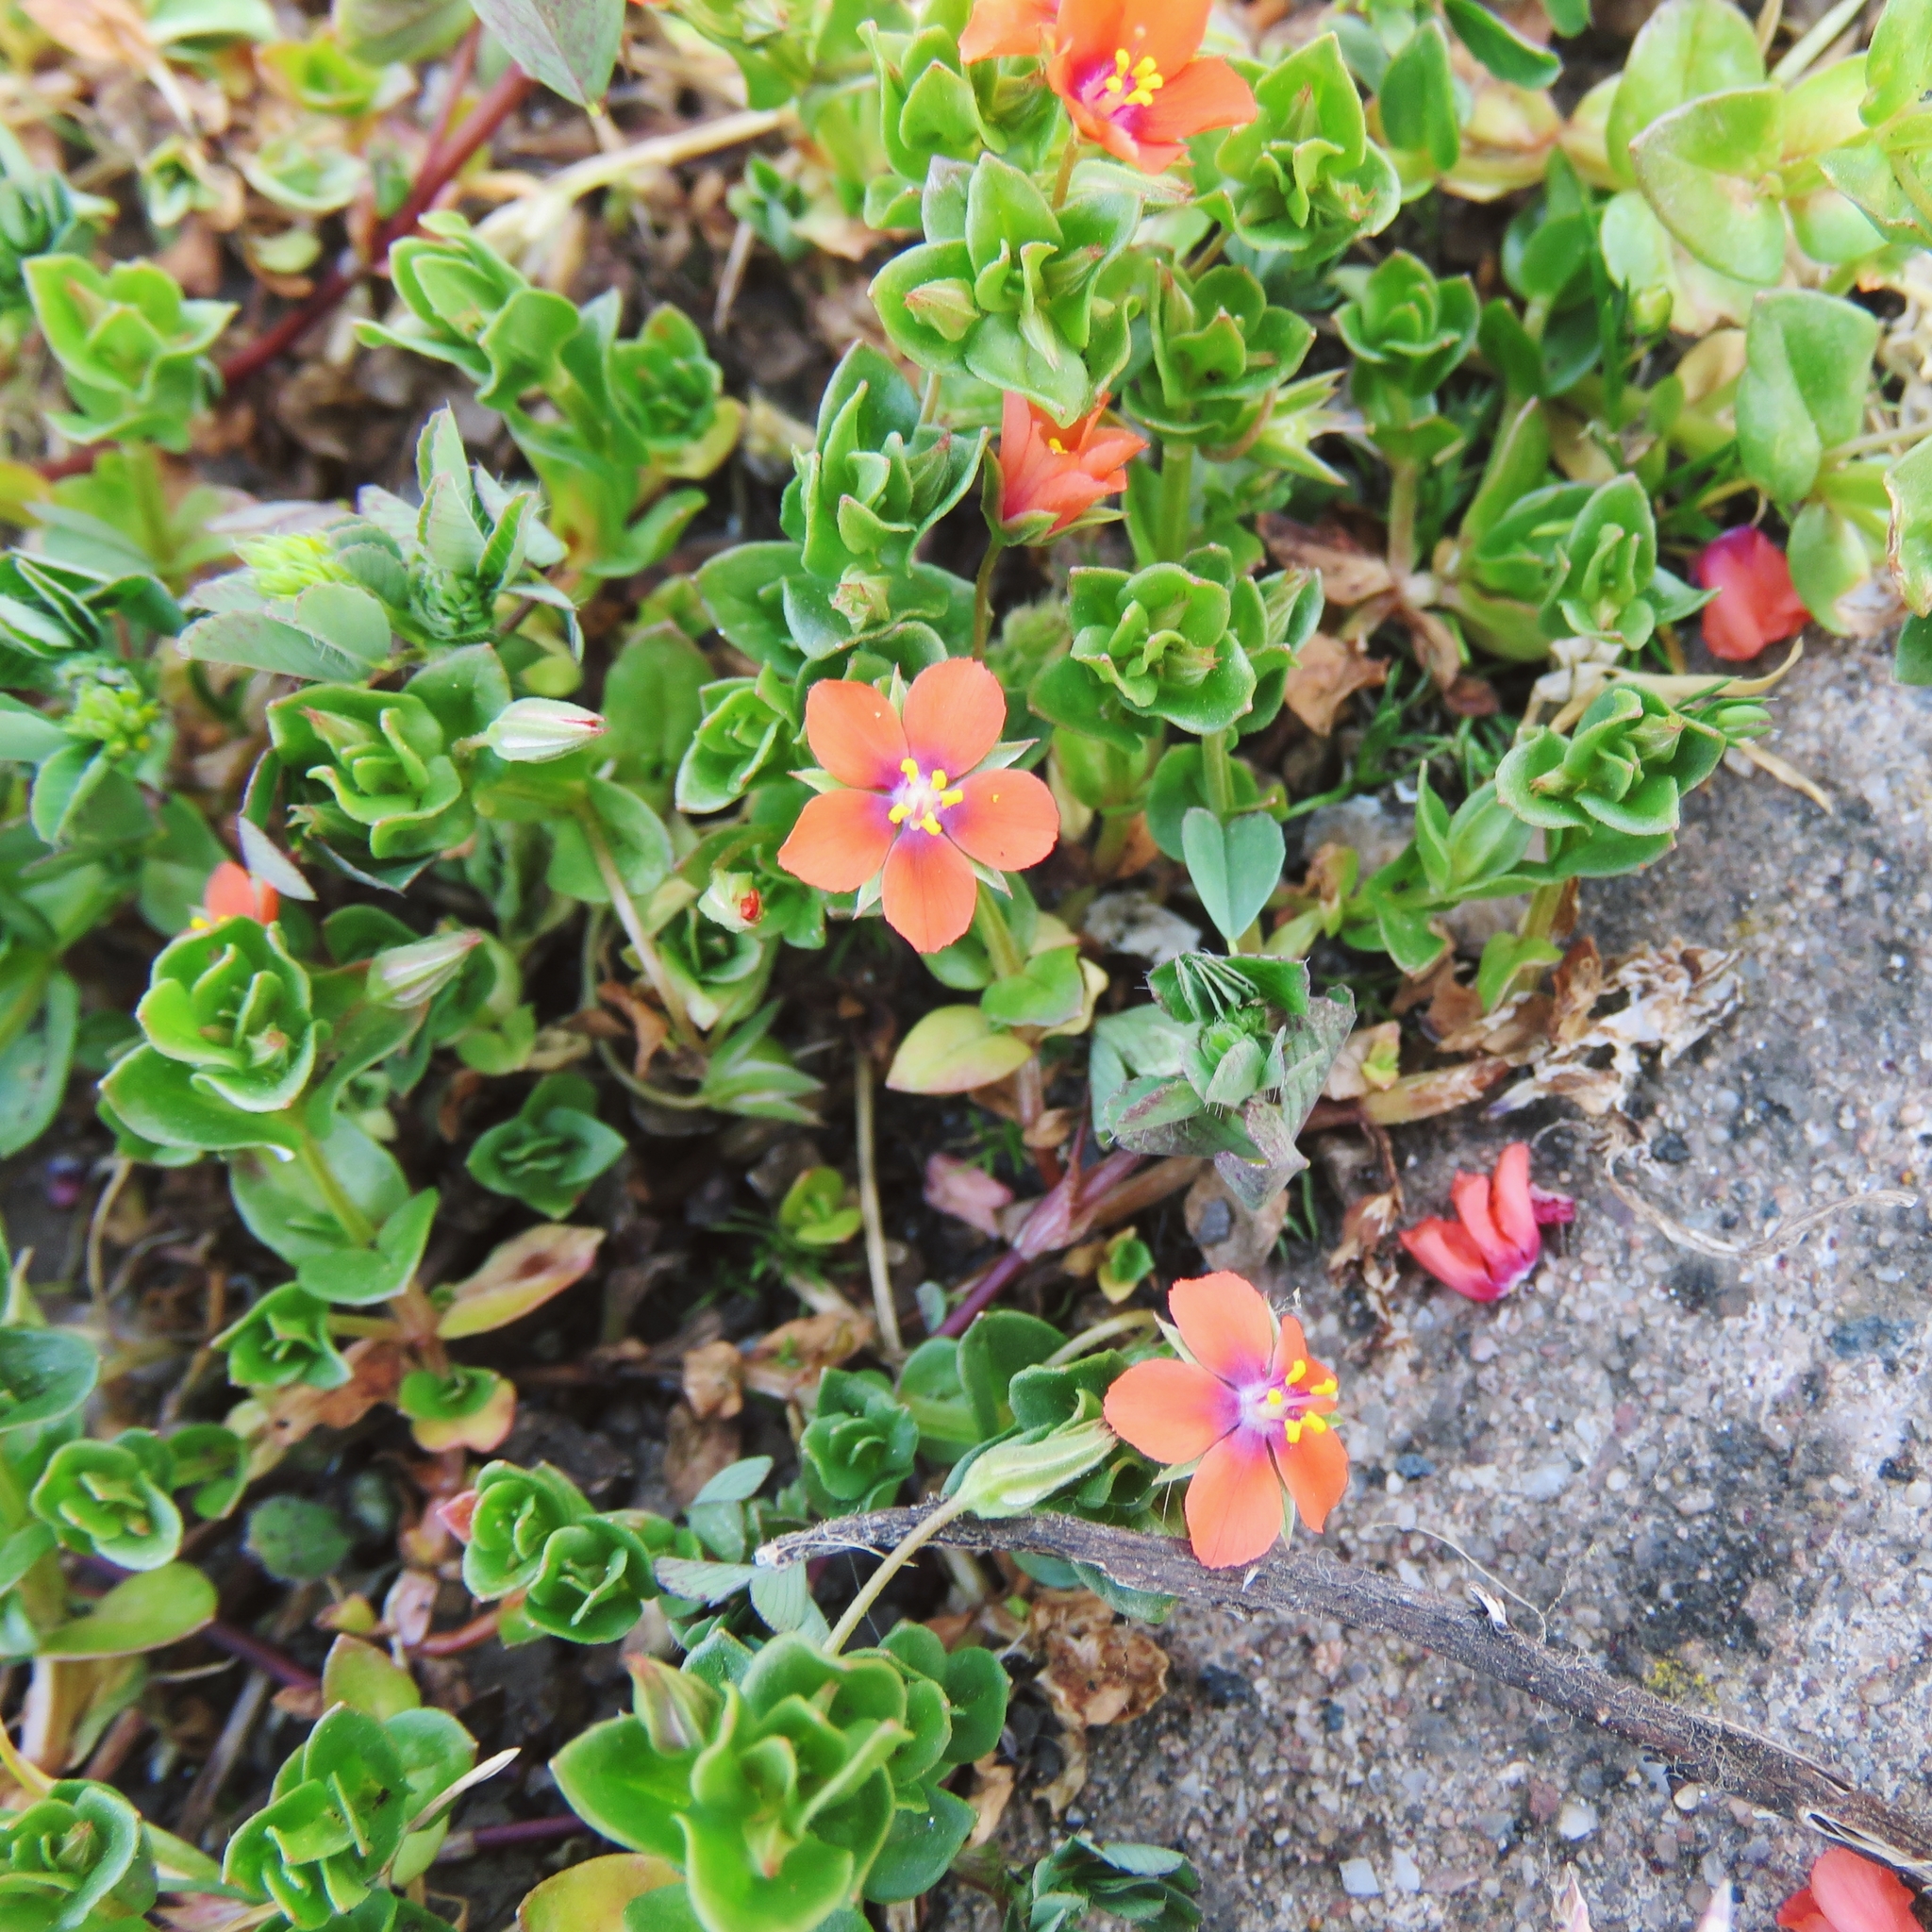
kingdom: Plantae
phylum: Tracheophyta
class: Magnoliopsida
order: Ericales
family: Primulaceae
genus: Lysimachia
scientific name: Lysimachia arvensis
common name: Scarlet pimpernel
